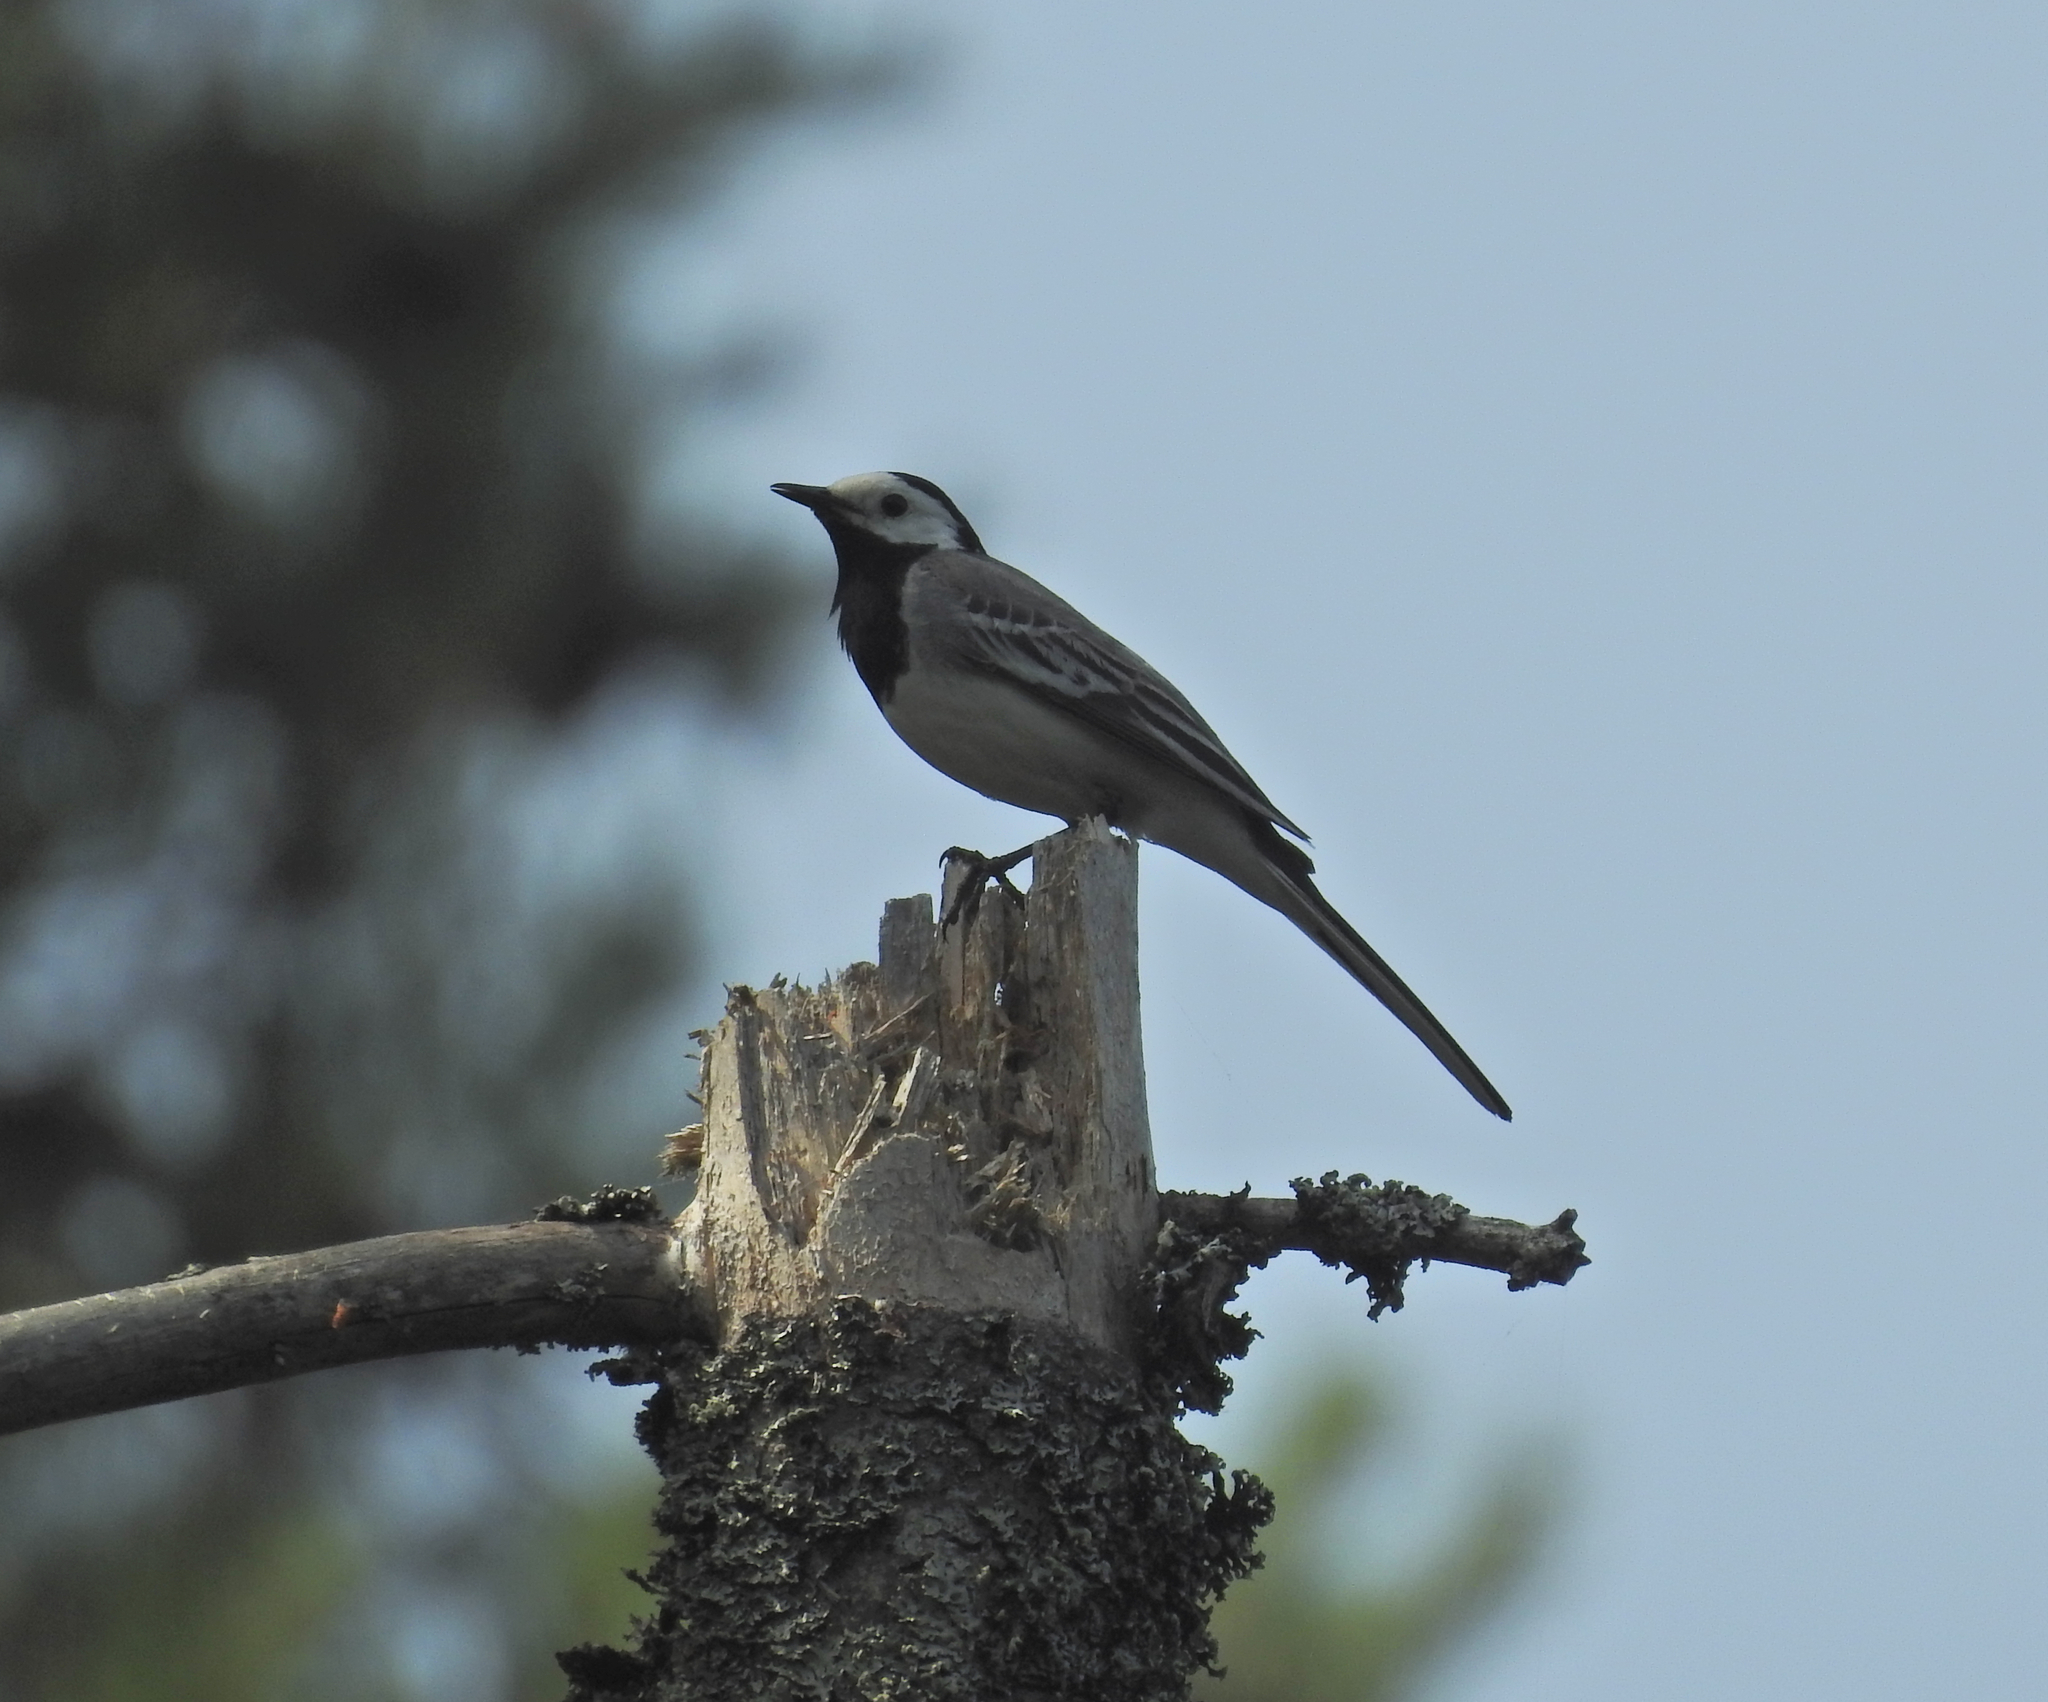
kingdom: Animalia
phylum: Chordata
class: Aves
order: Passeriformes
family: Motacillidae
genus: Motacilla
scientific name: Motacilla alba
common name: White wagtail
